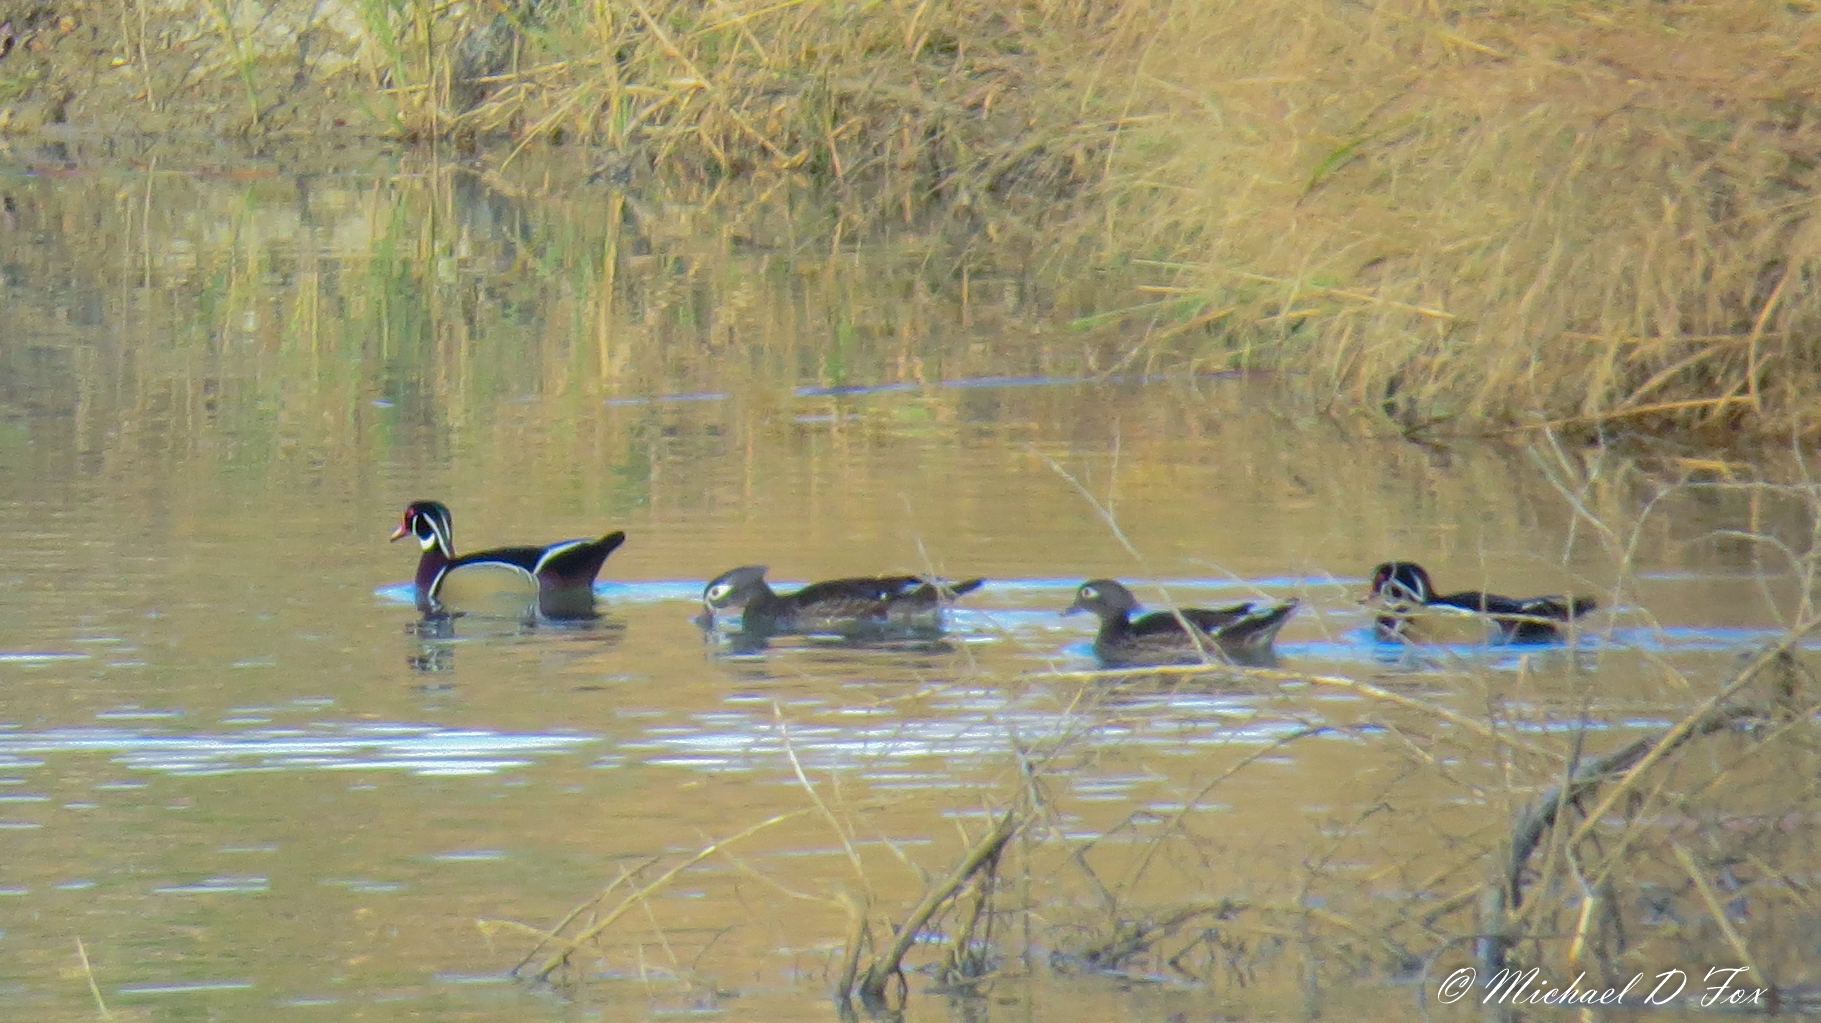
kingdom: Animalia
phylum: Chordata
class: Aves
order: Anseriformes
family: Anatidae
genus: Aix
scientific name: Aix sponsa
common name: Wood duck
